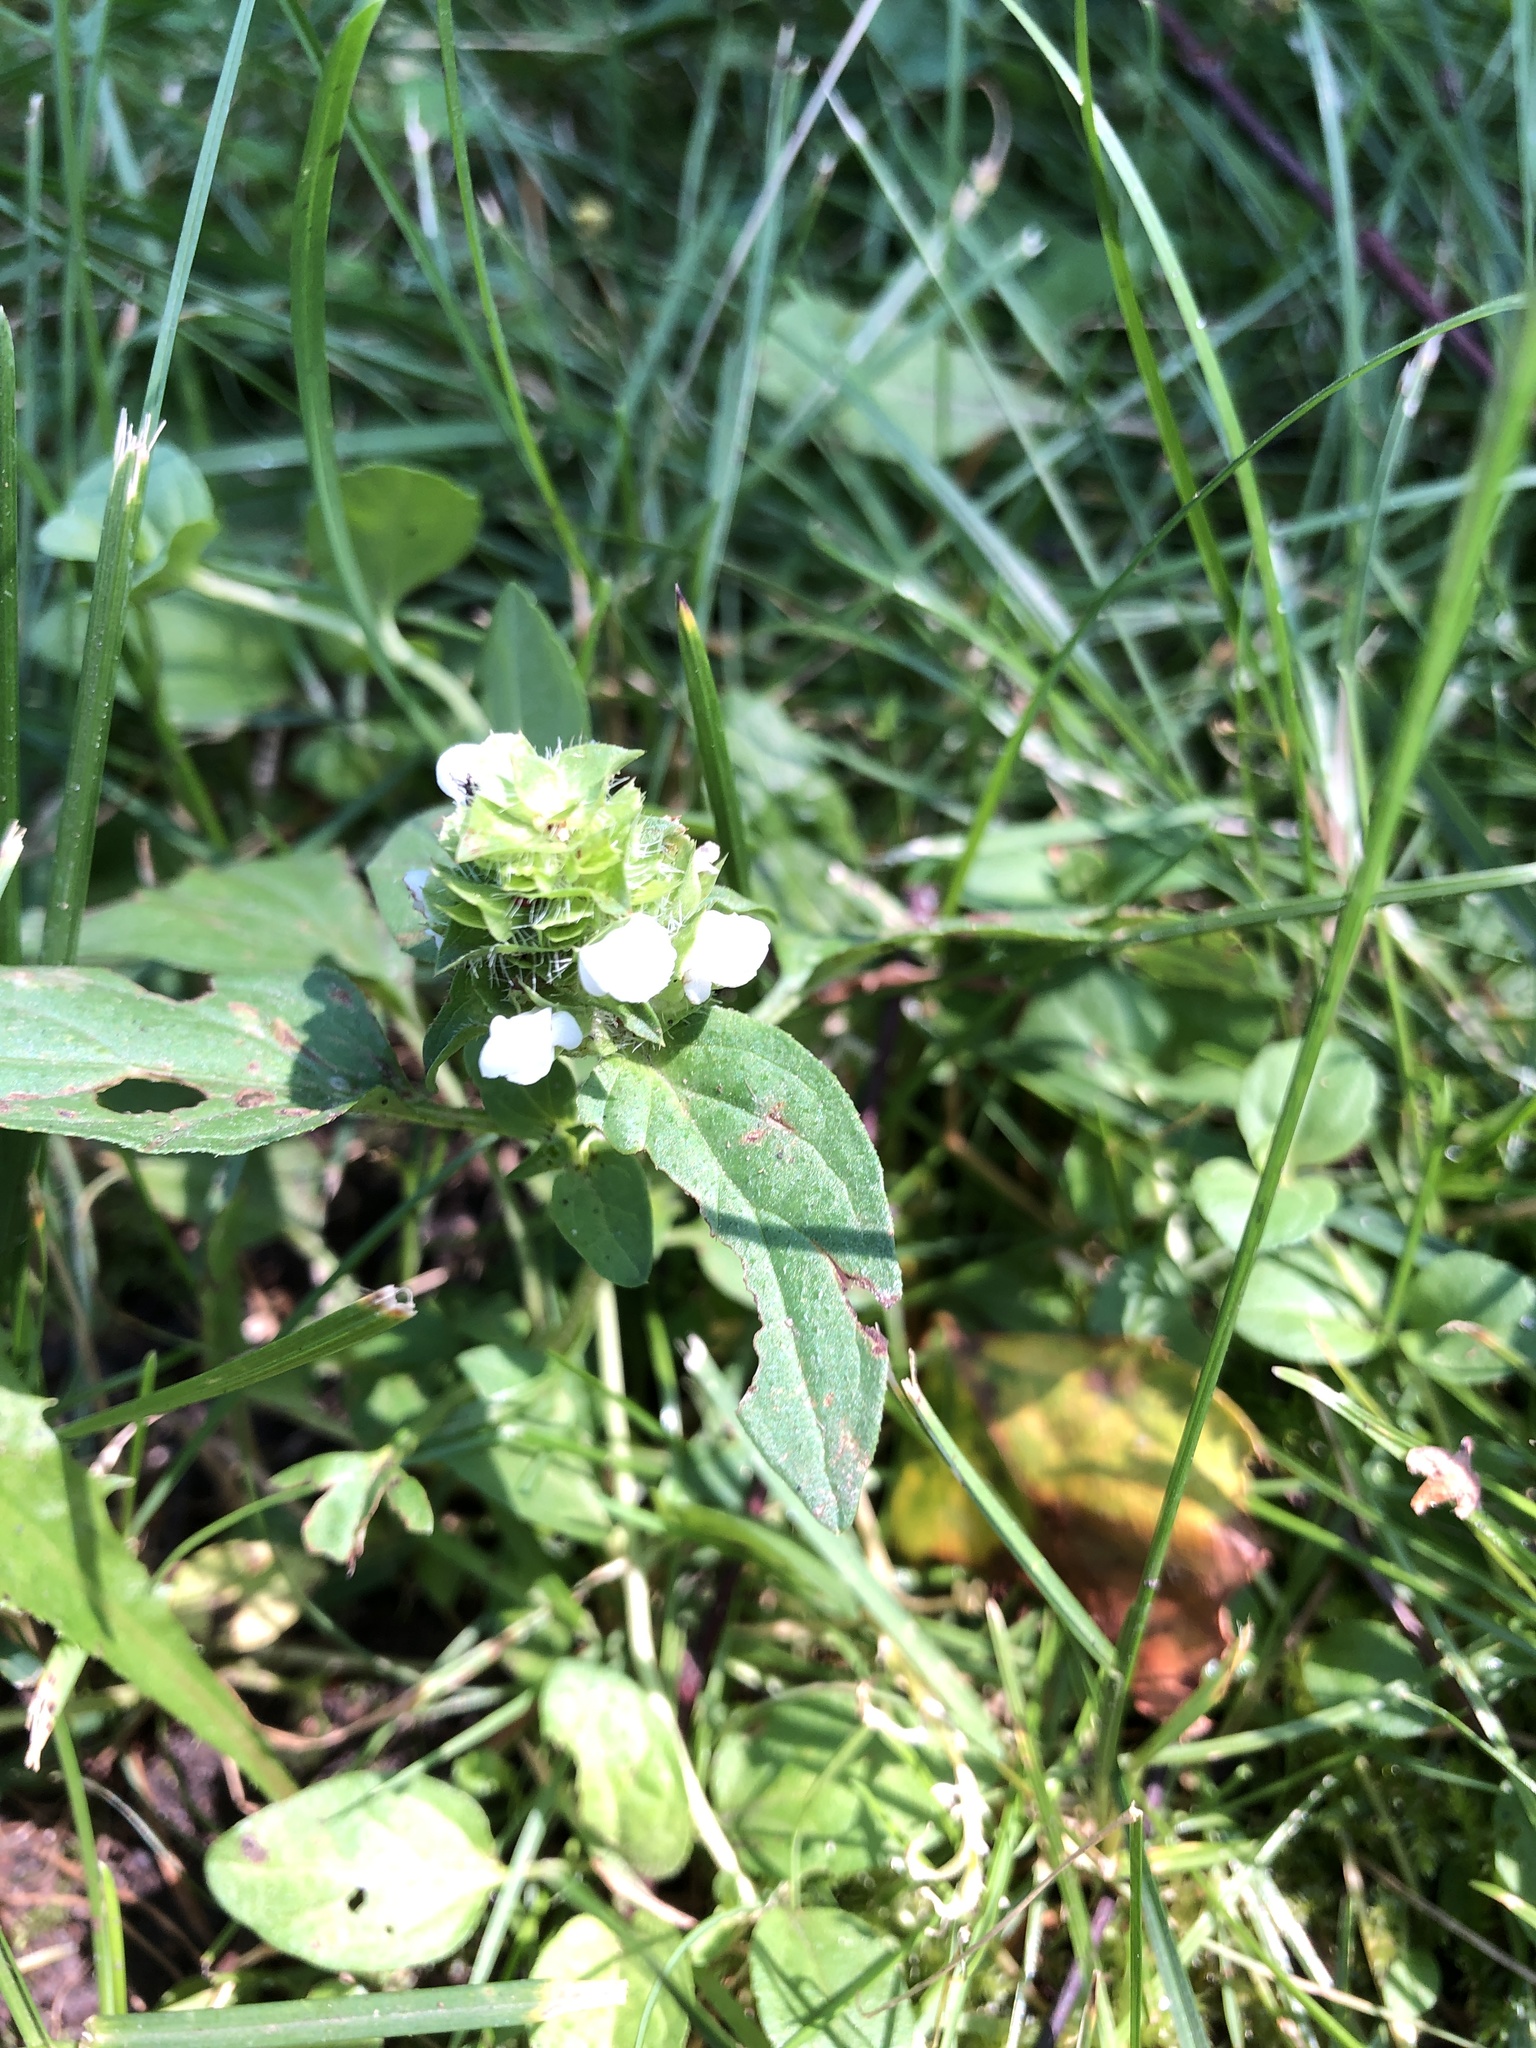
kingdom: Plantae
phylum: Tracheophyta
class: Magnoliopsida
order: Lamiales
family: Lamiaceae
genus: Prunella
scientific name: Prunella vulgaris
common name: Heal-all
